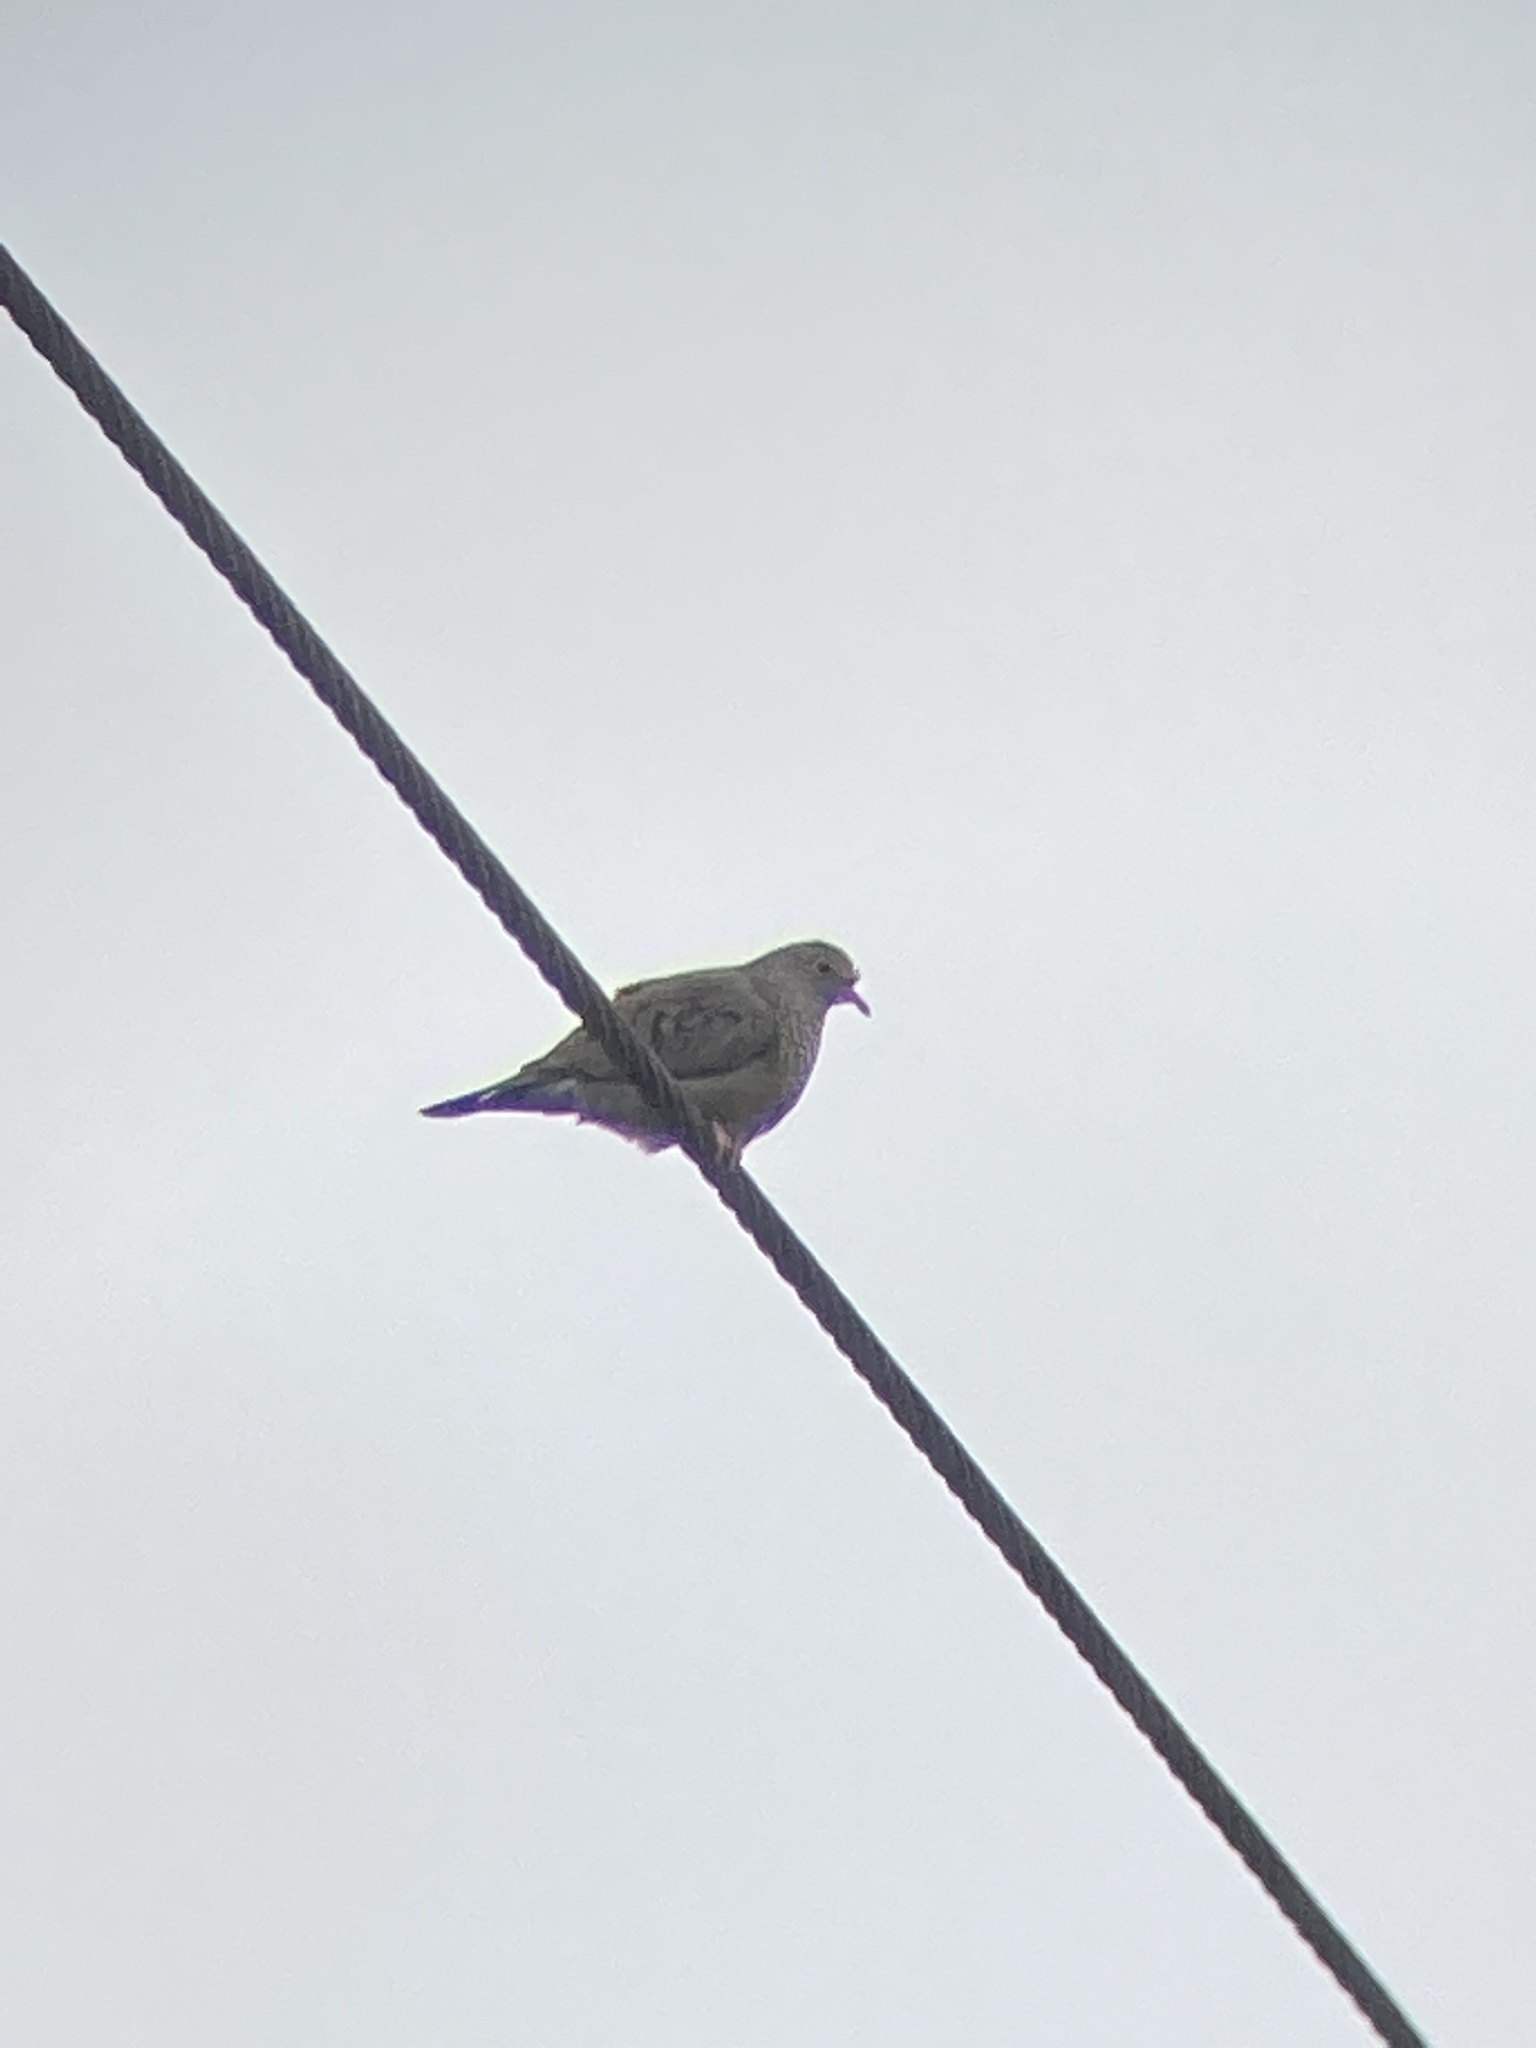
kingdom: Animalia
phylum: Chordata
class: Aves
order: Columbiformes
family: Columbidae
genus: Columbina
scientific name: Columbina passerina
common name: Common ground-dove
